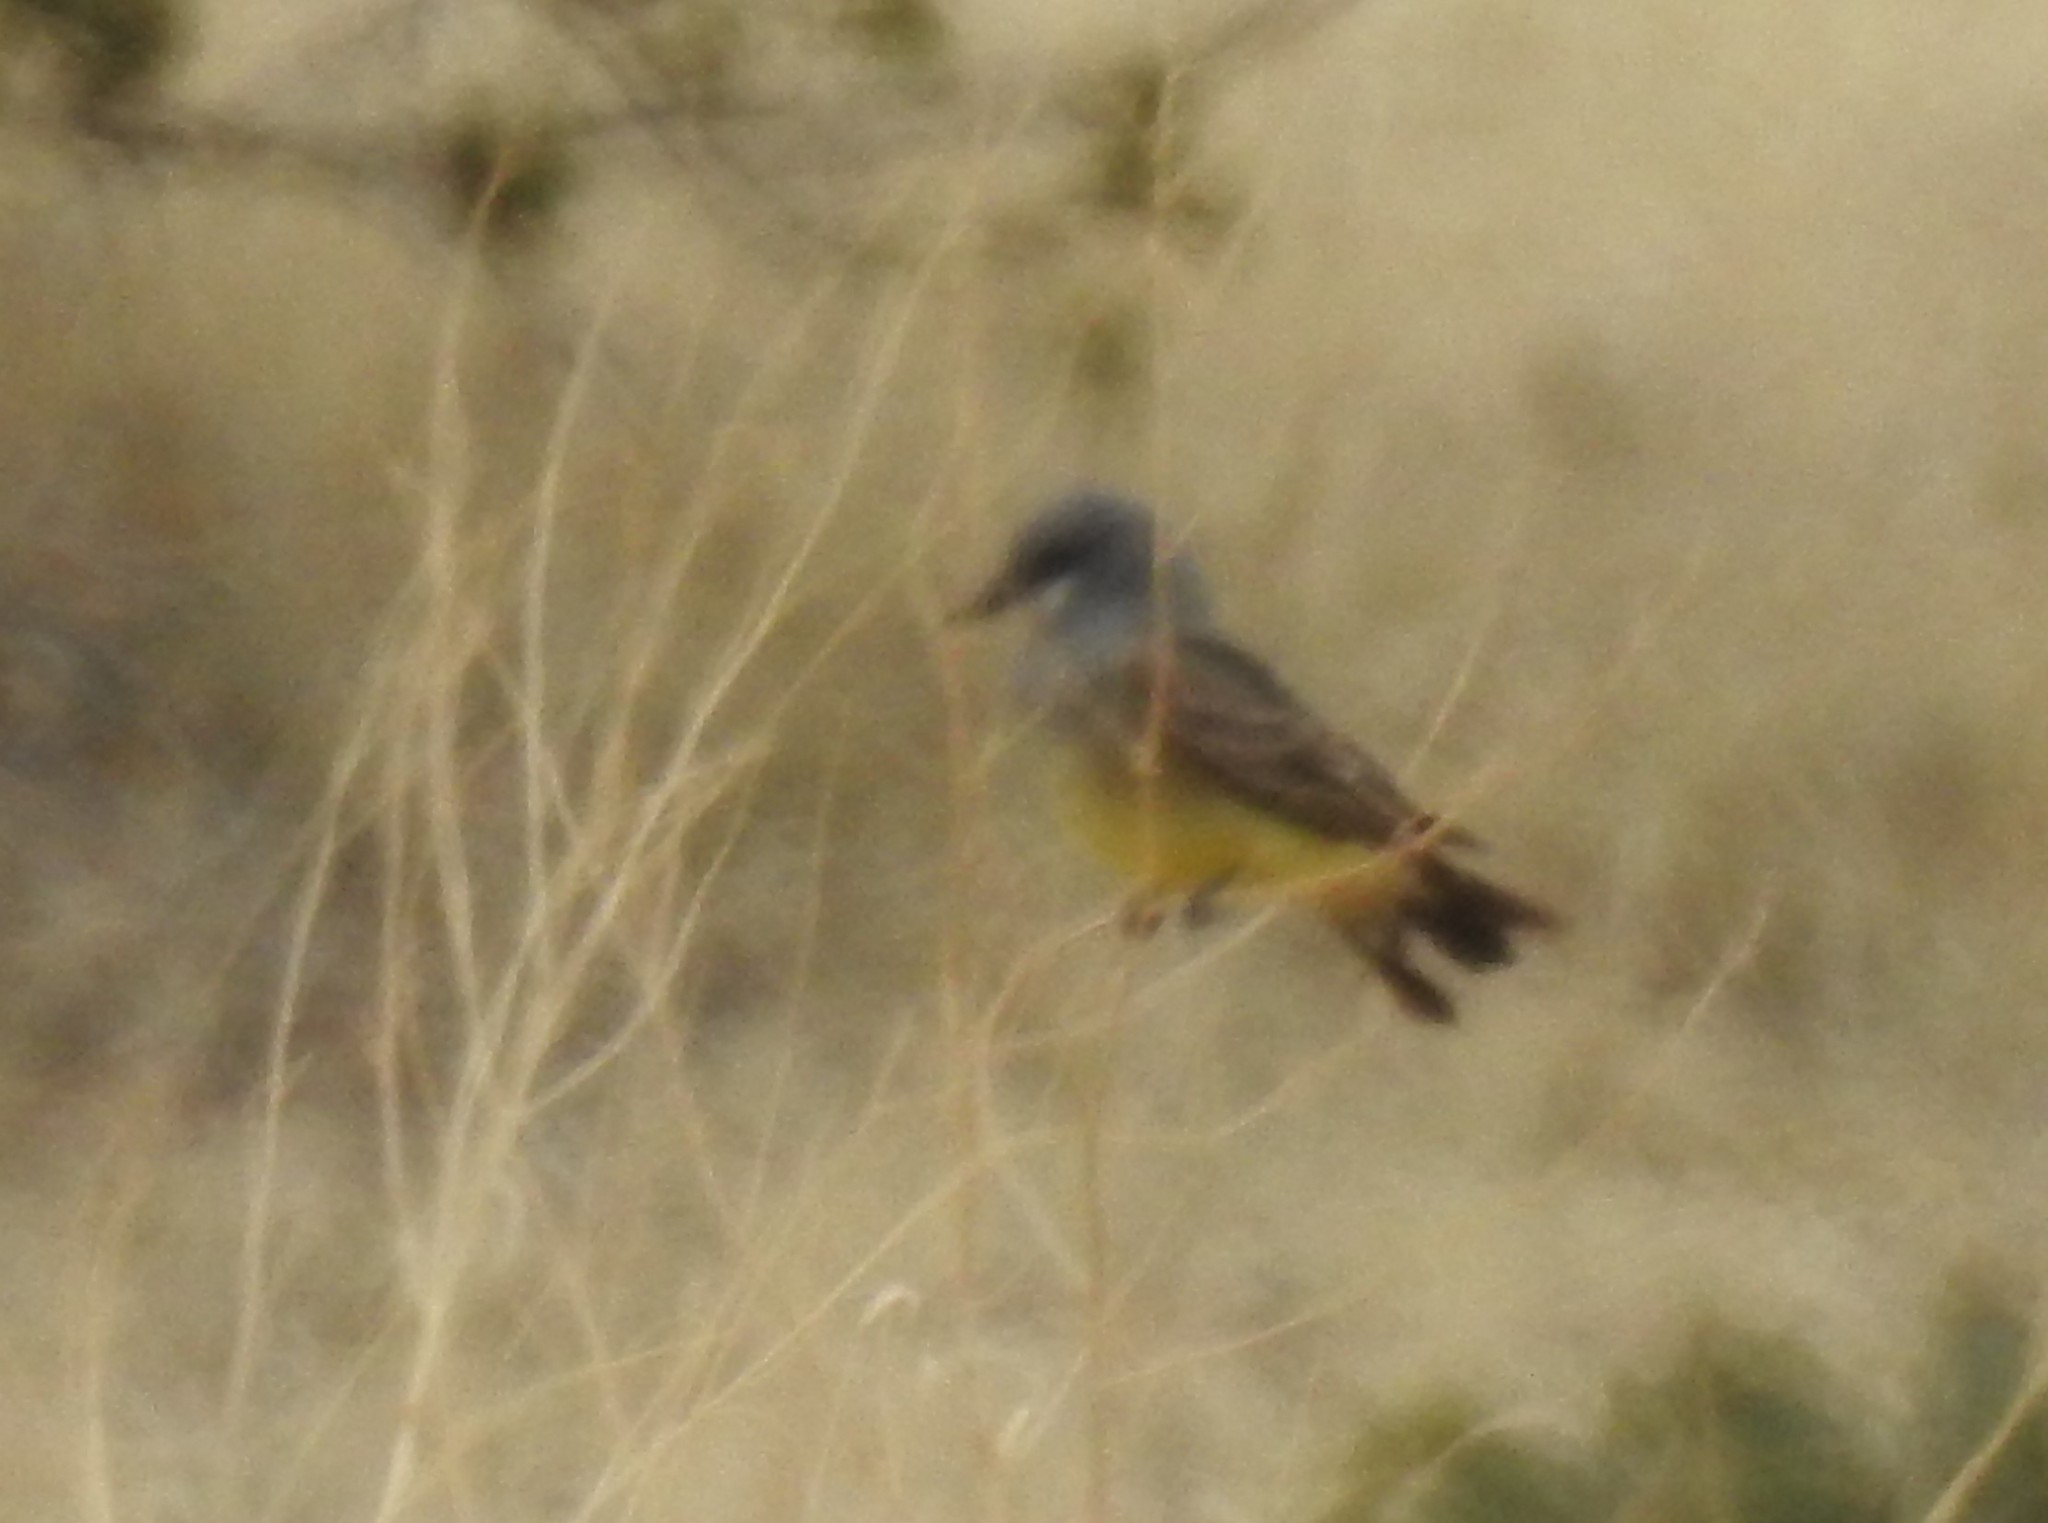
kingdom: Animalia
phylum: Chordata
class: Aves
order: Passeriformes
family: Tyrannidae
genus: Tyrannus
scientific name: Tyrannus vociferans
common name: Cassin's kingbird
